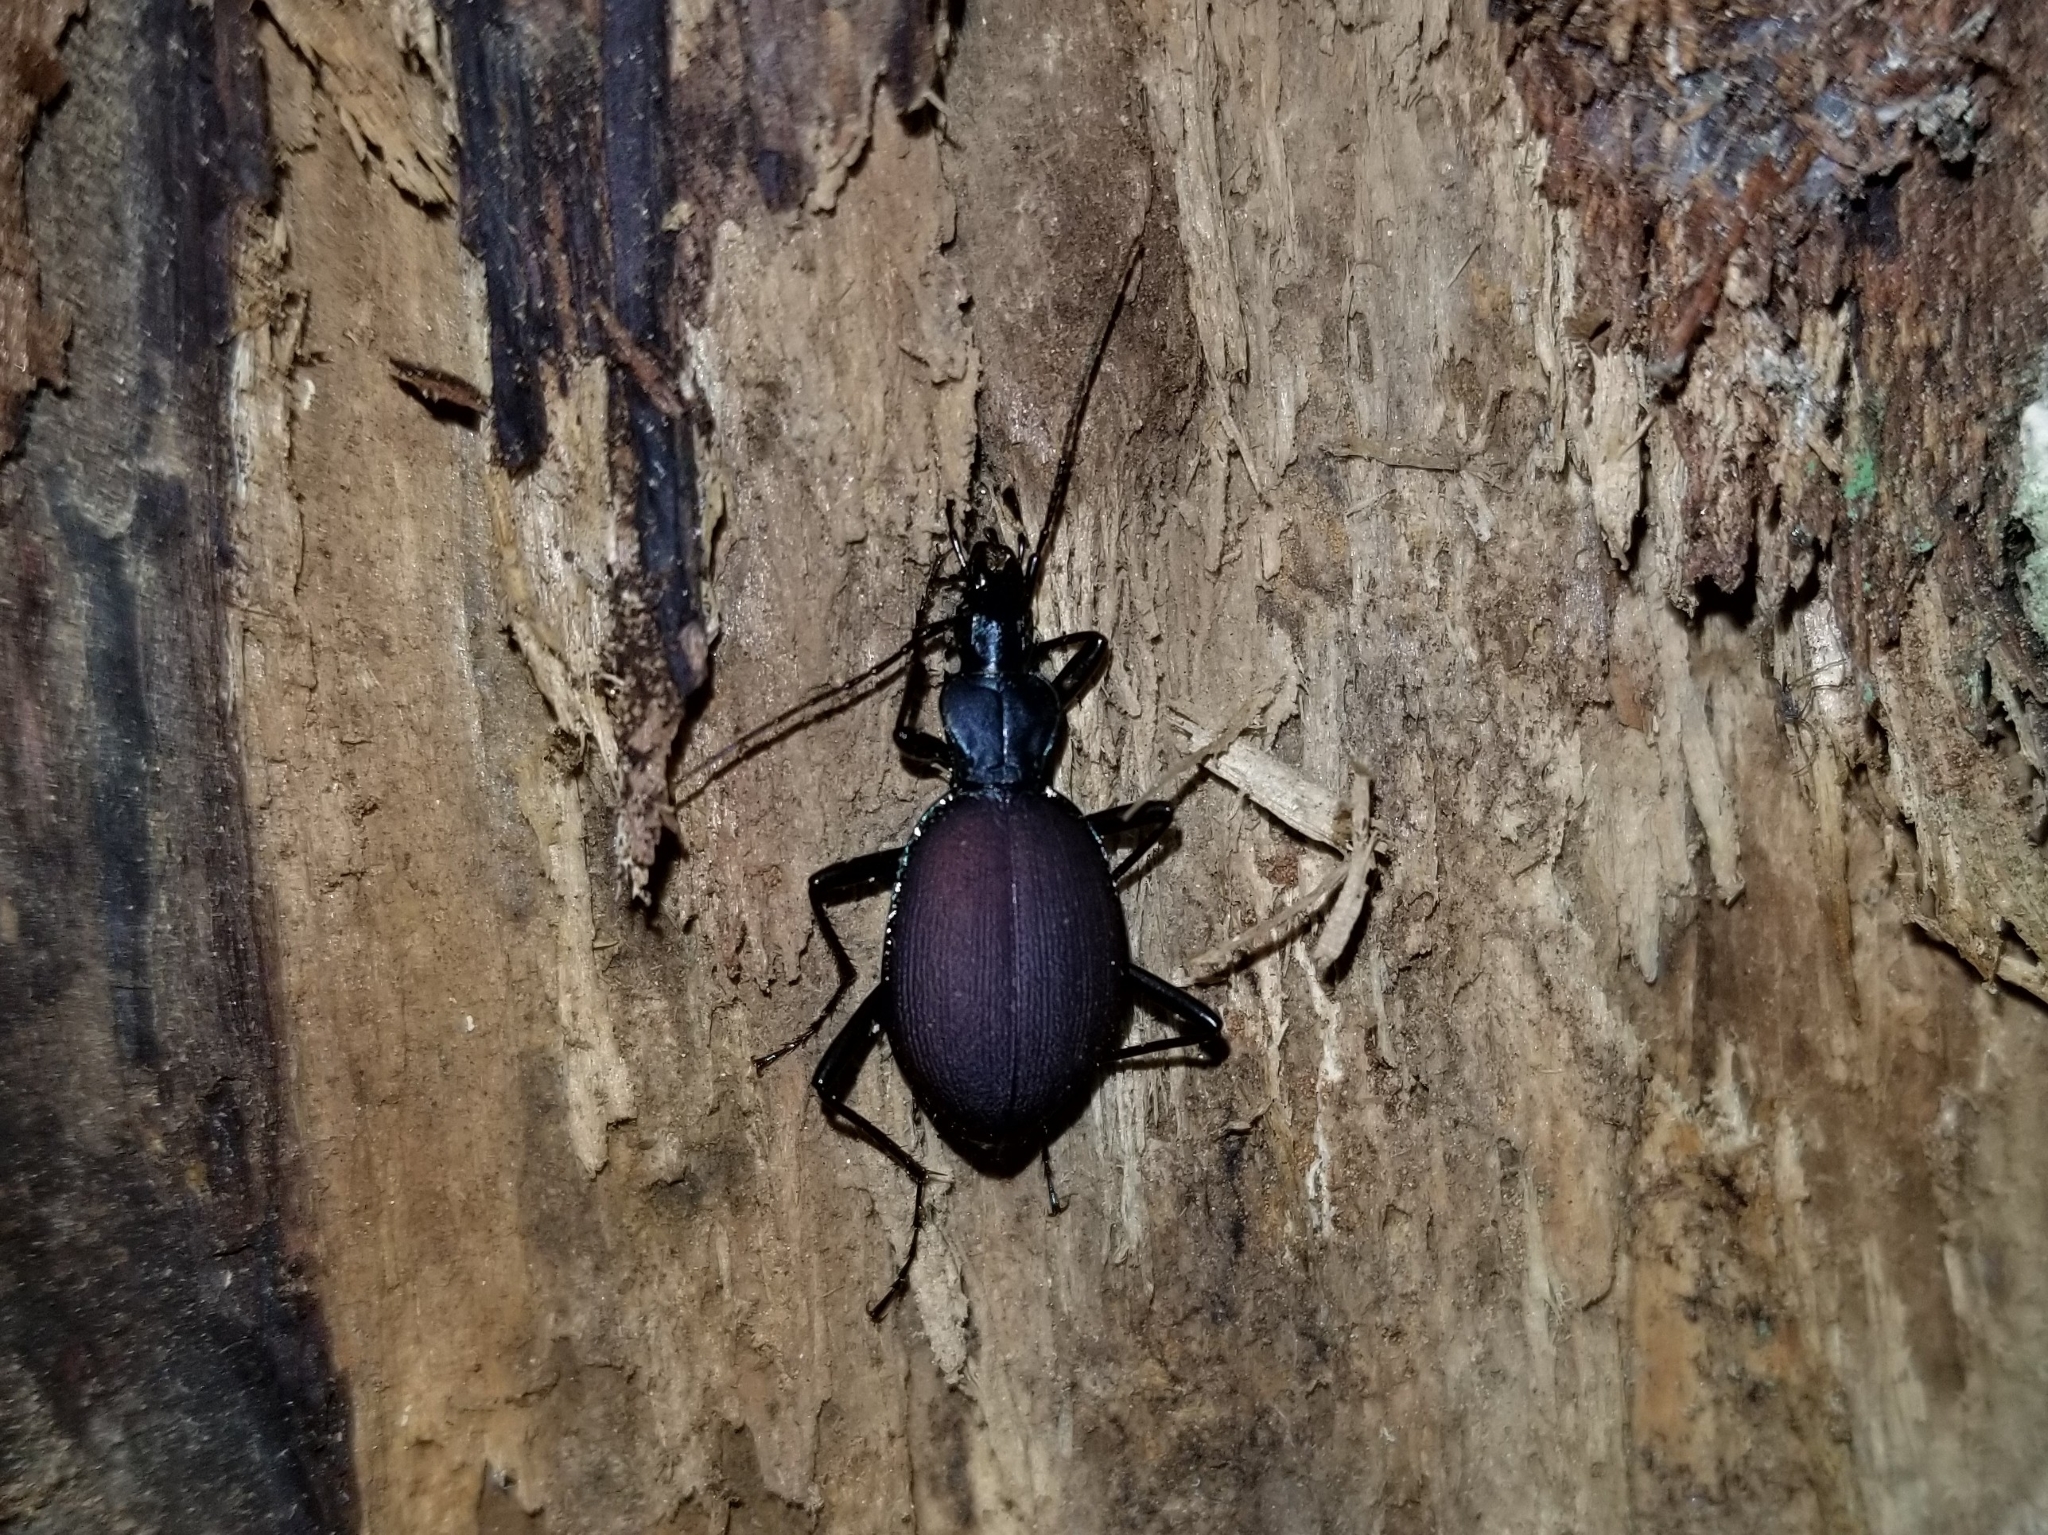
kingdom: Animalia
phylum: Arthropoda
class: Insecta
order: Coleoptera
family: Carabidae
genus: Scaphinotus
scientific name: Scaphinotus angusticollis
